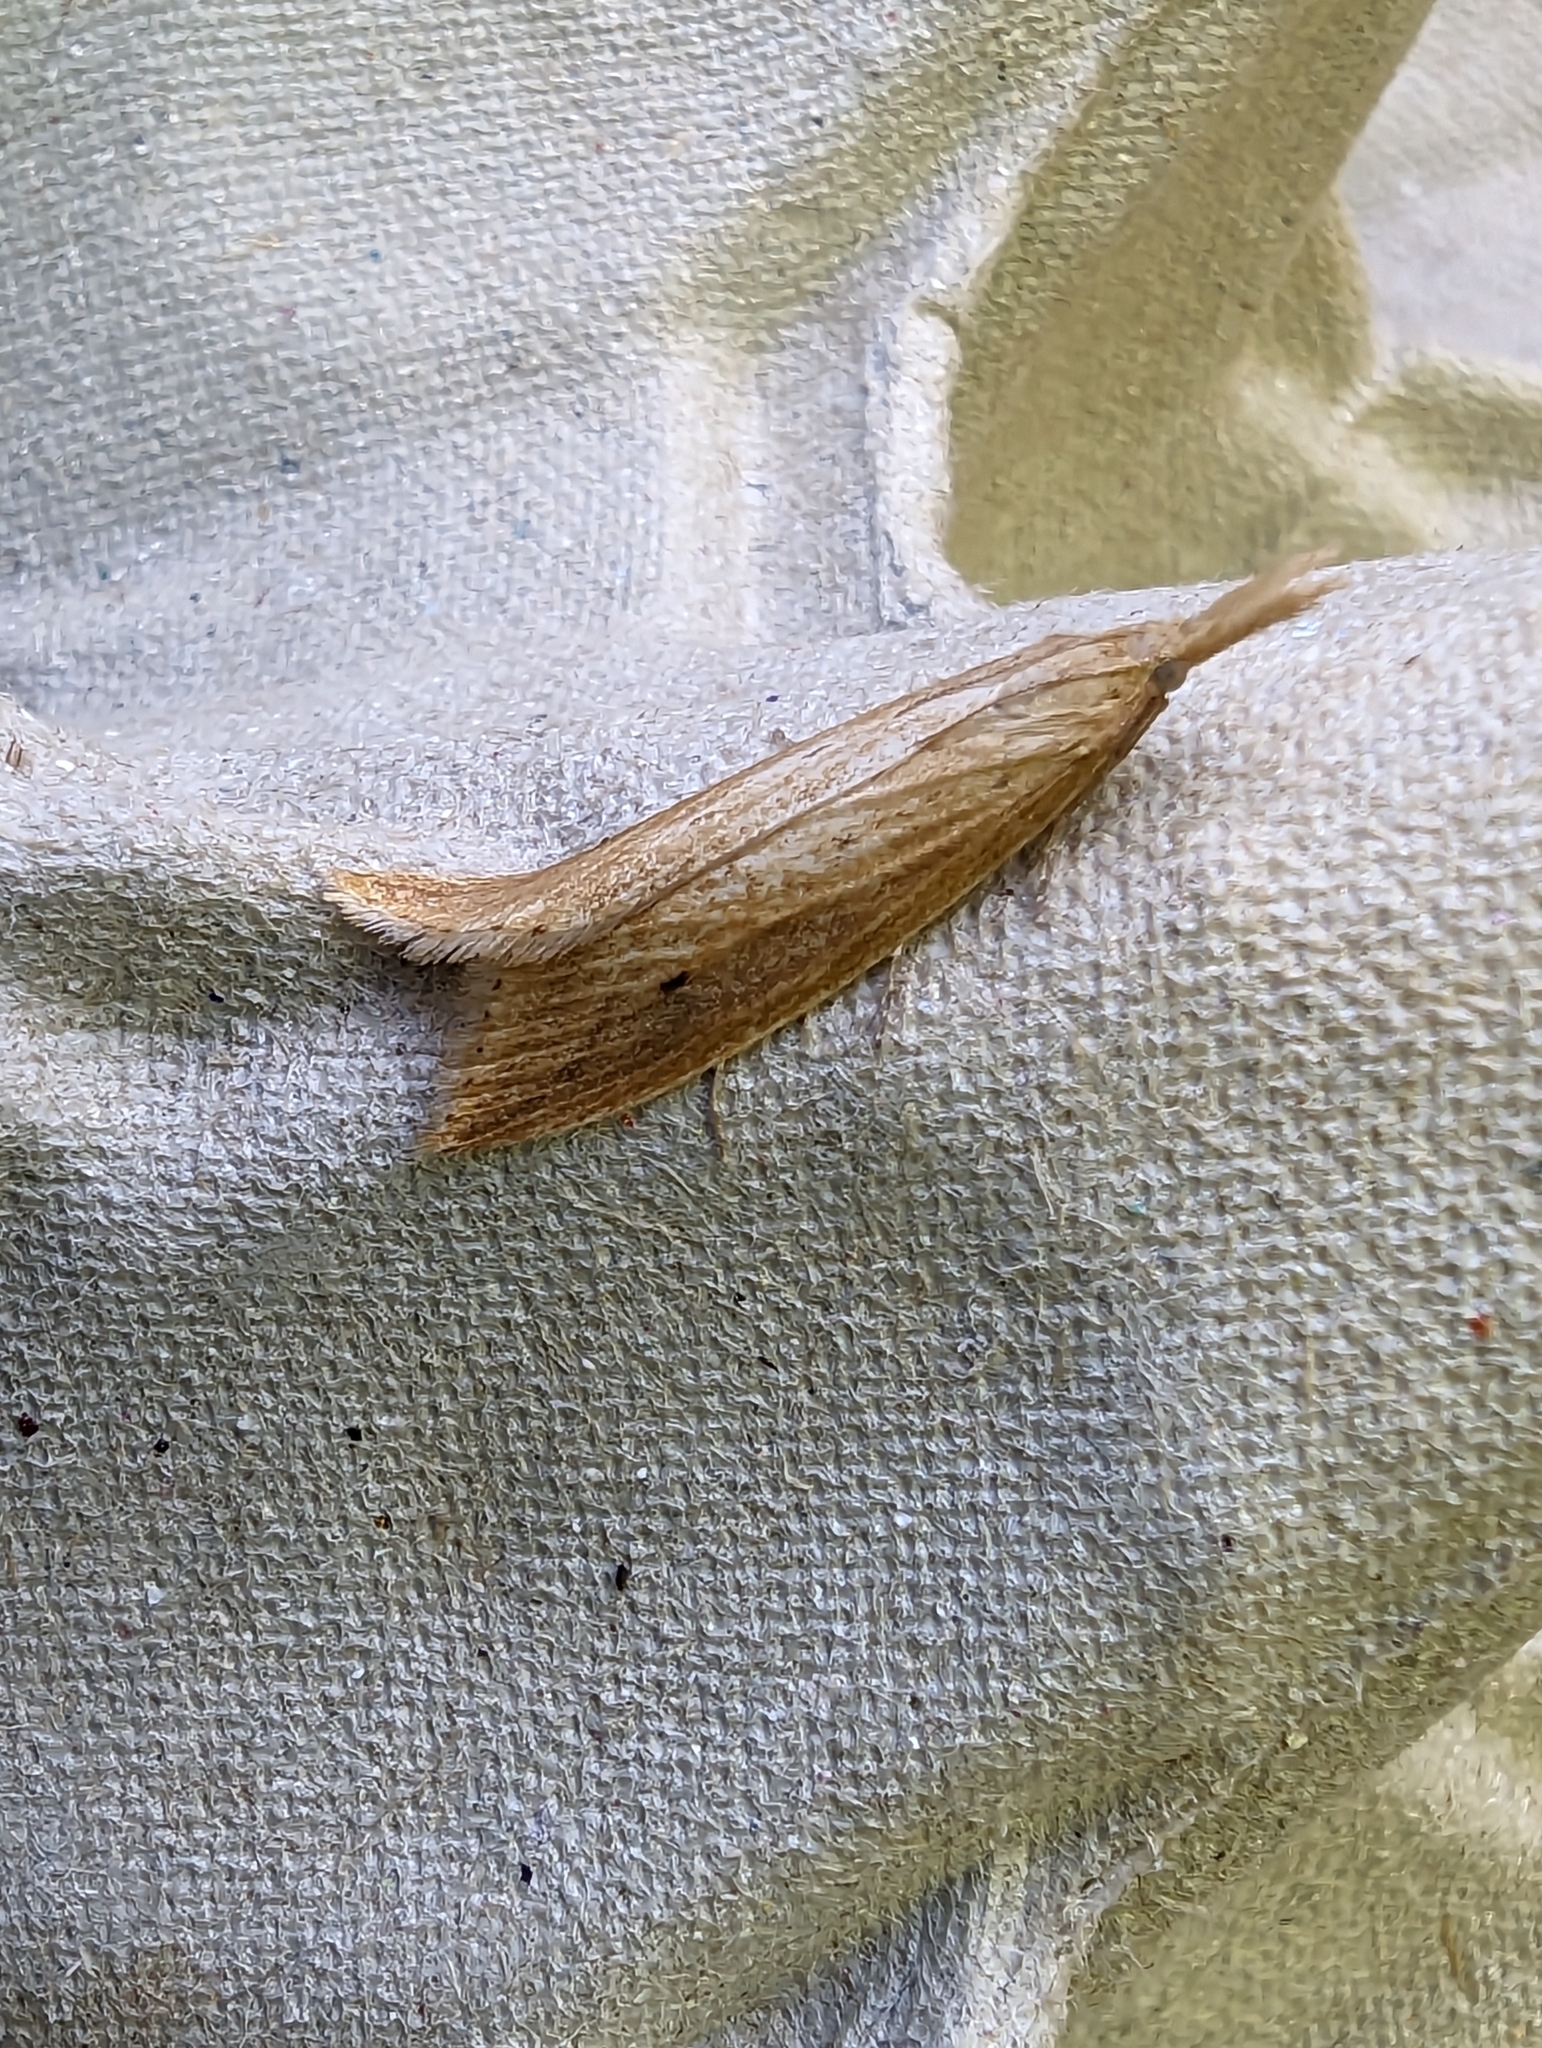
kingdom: Animalia
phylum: Arthropoda
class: Insecta
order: Lepidoptera
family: Crambidae
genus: Donacaula
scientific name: Donacaula forficella
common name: Pale water-veneer
